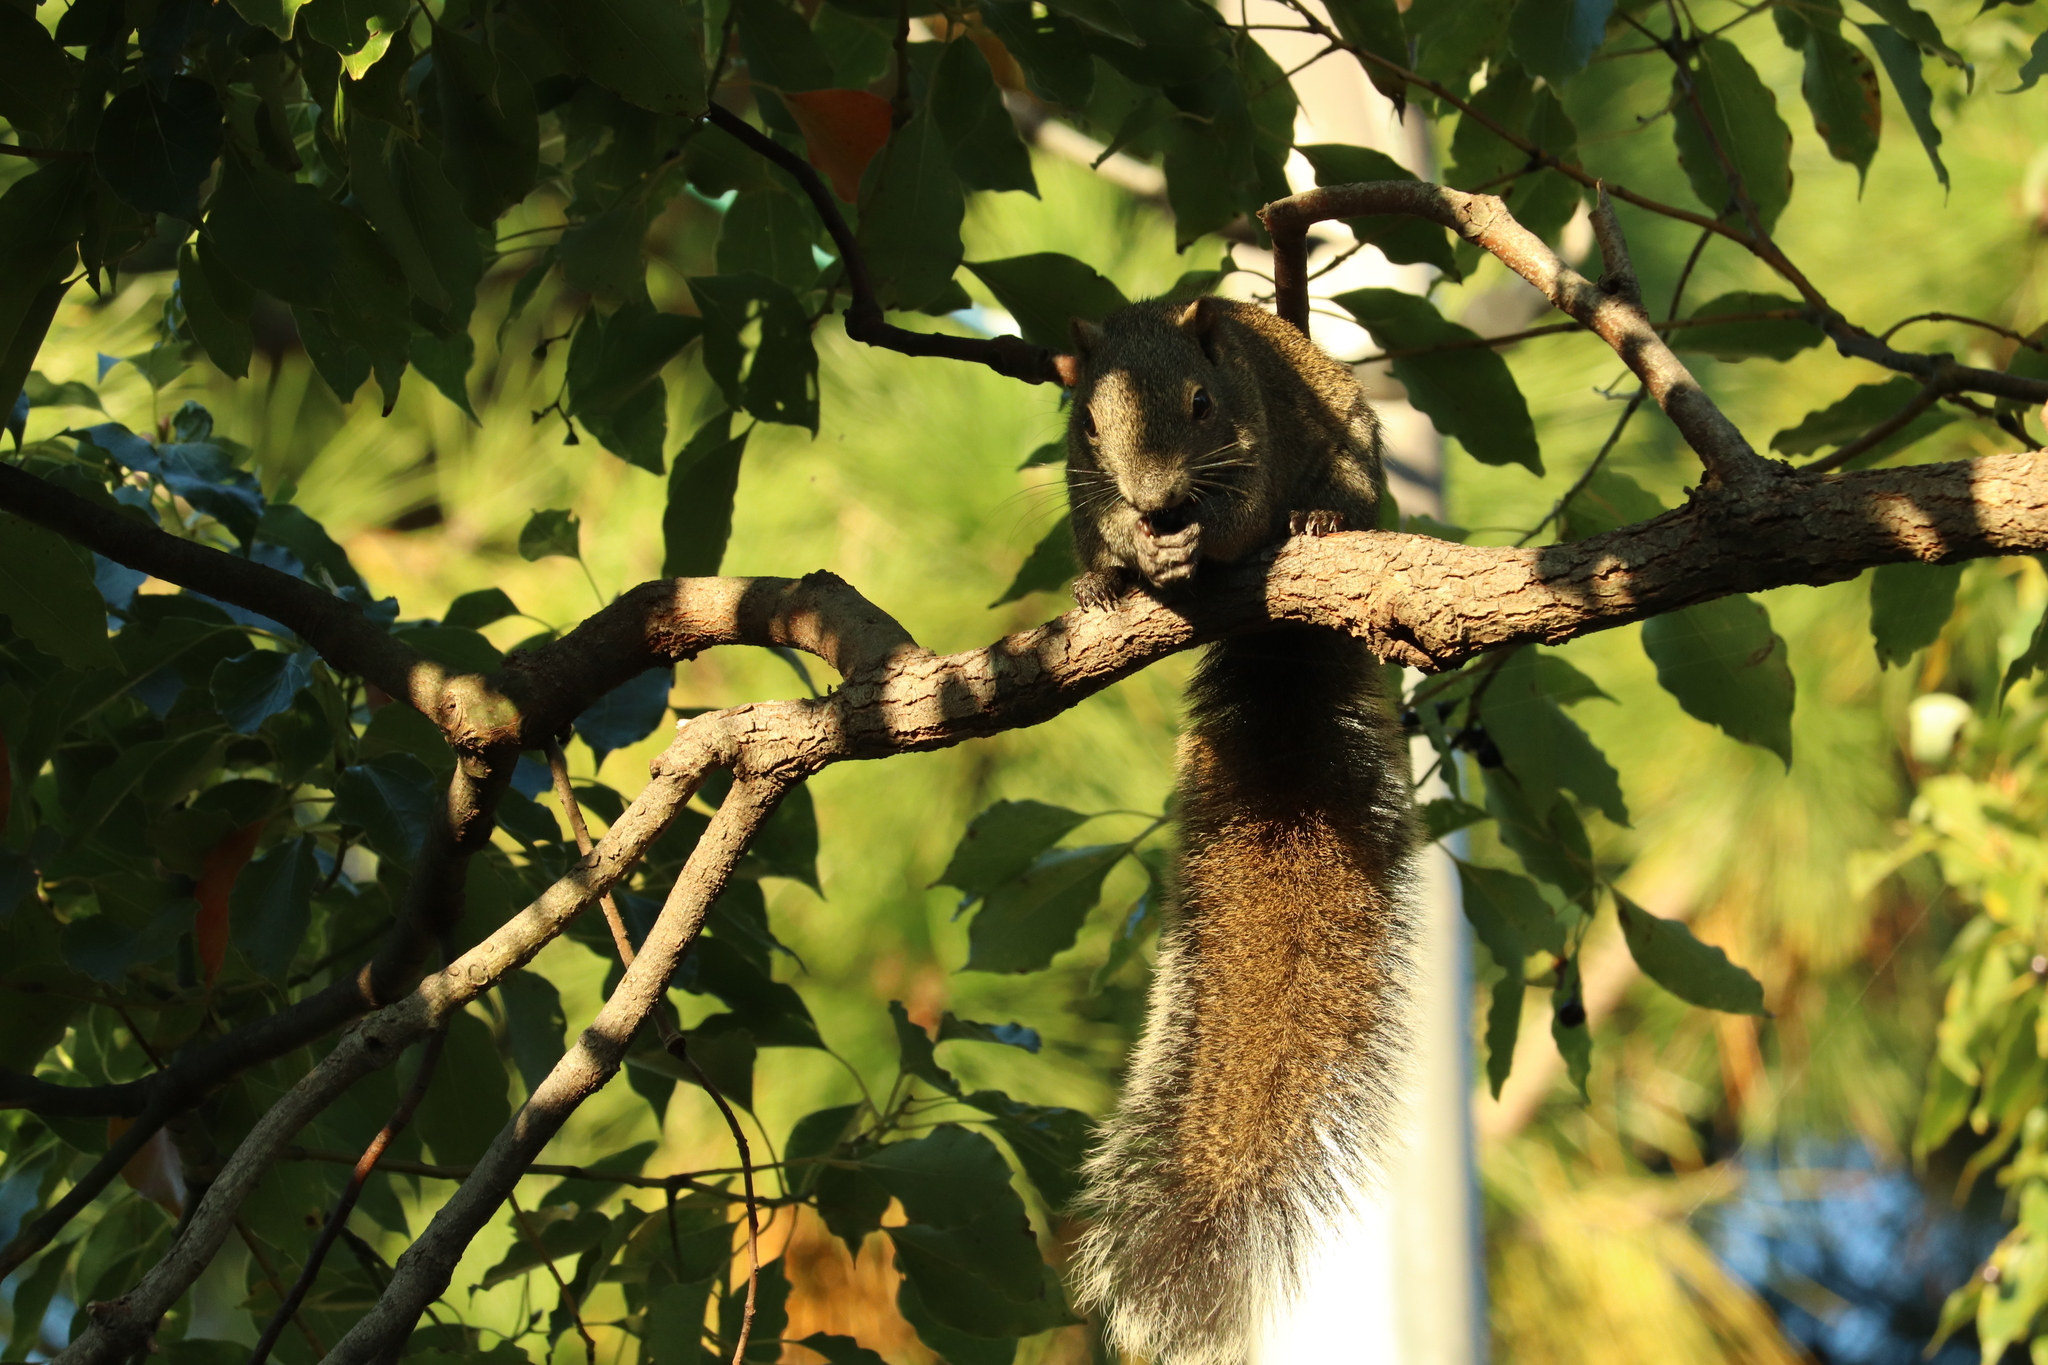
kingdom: Animalia
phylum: Chordata
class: Mammalia
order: Rodentia
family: Sciuridae
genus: Callosciurus
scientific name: Callosciurus erythraeus
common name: Pallas's squirrel
